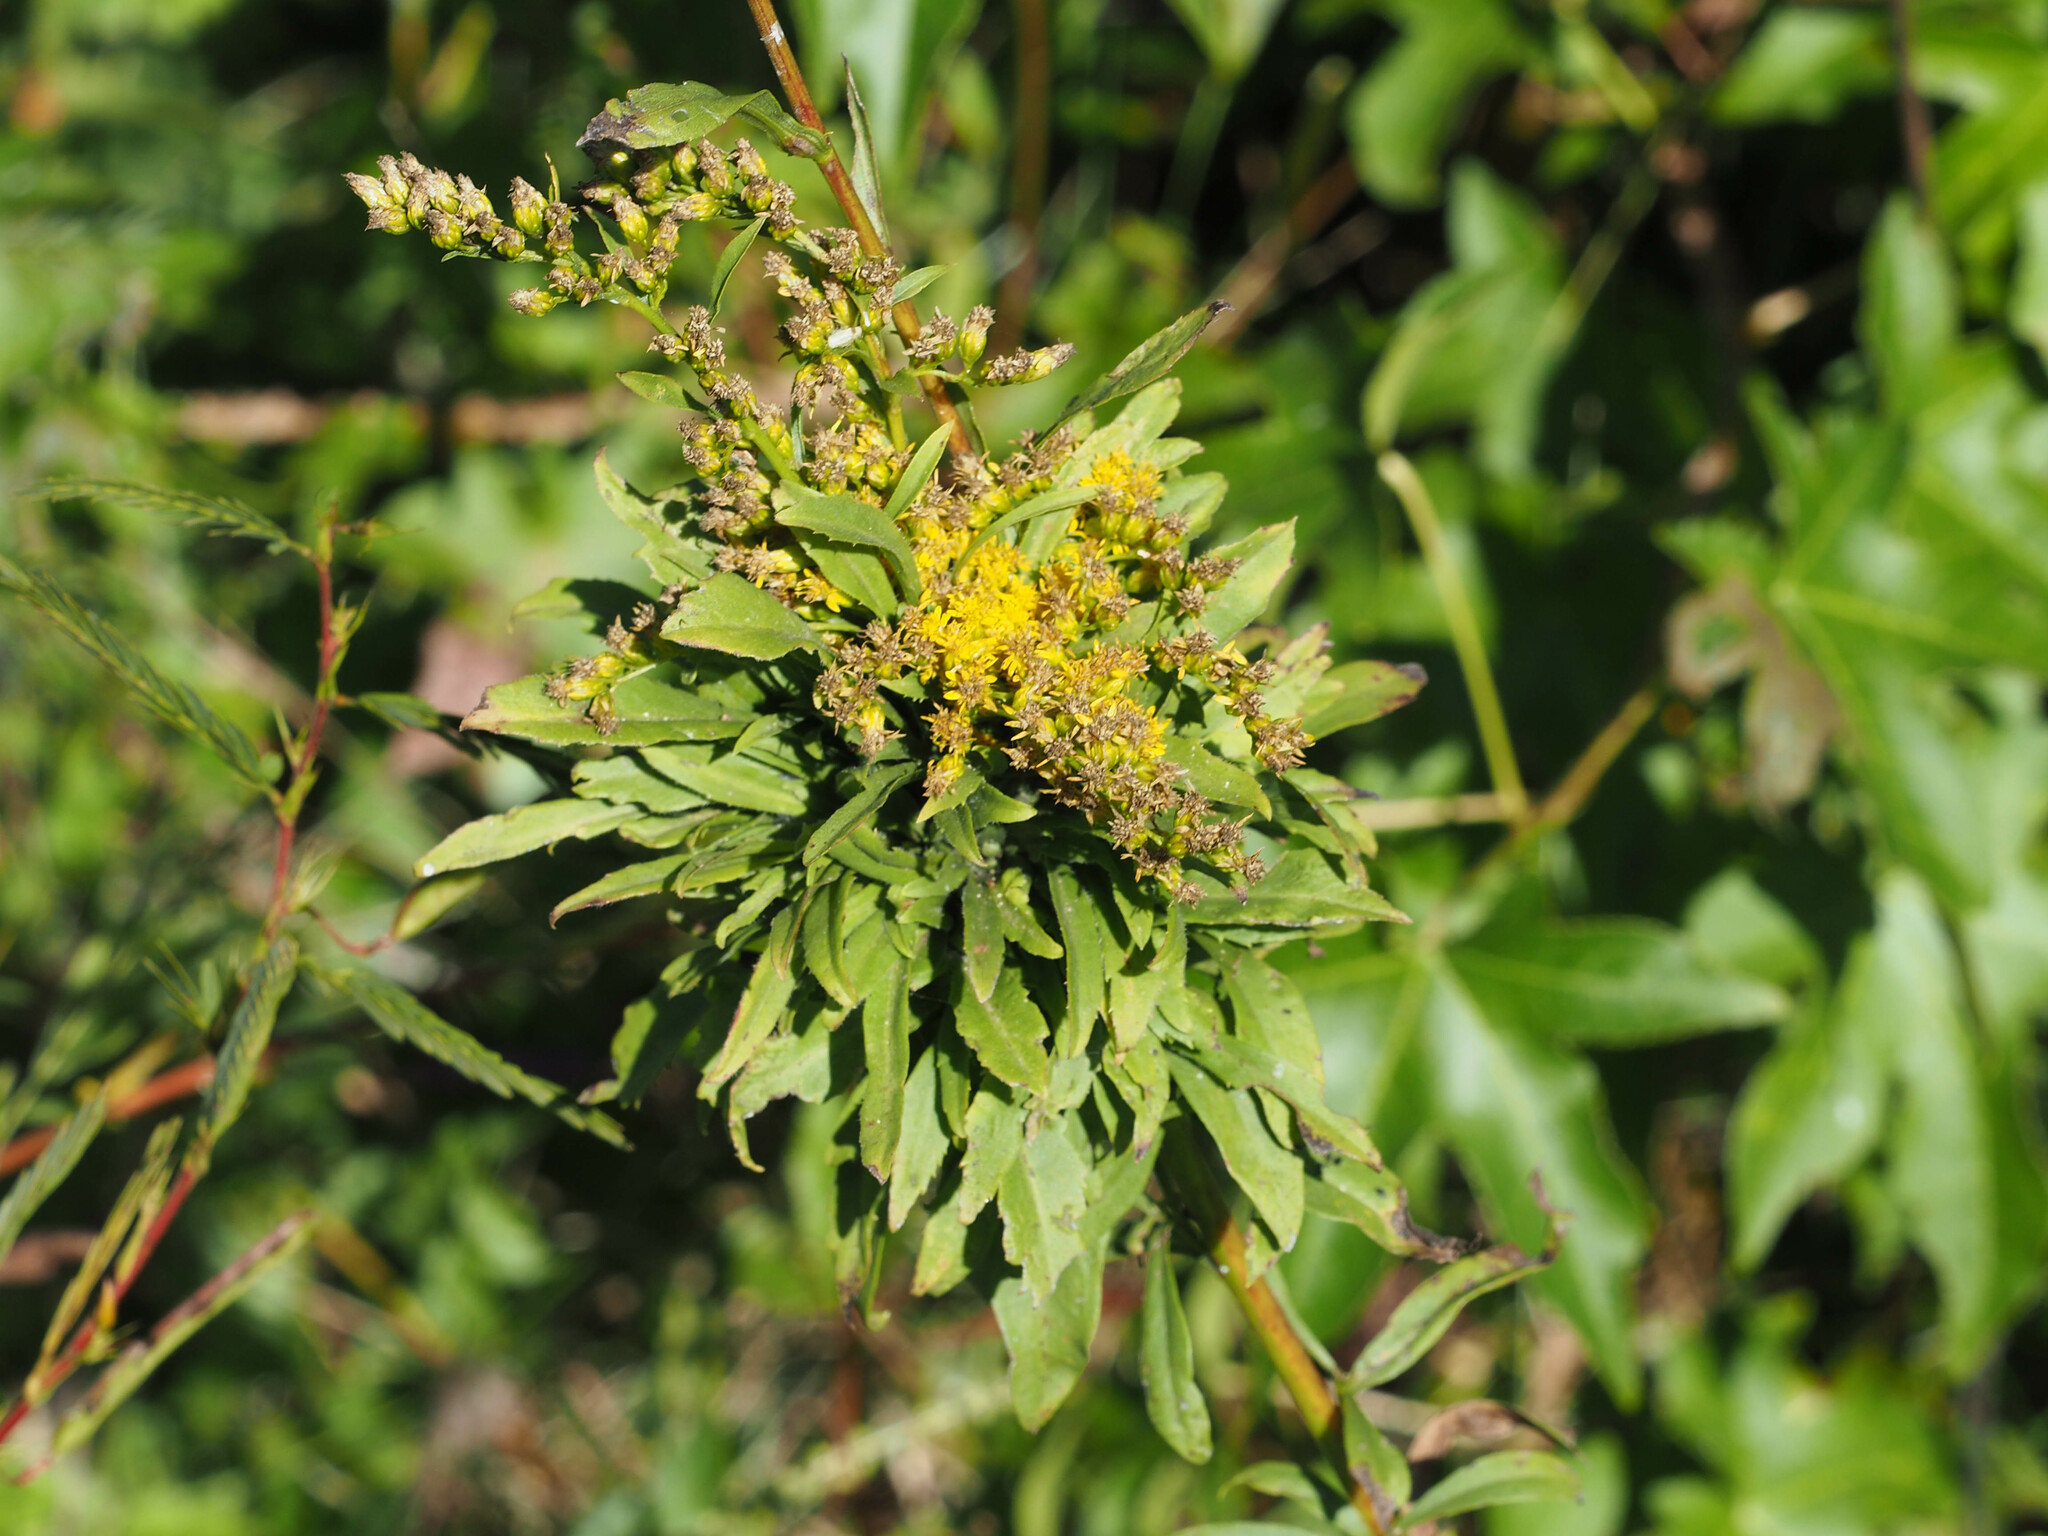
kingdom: Animalia
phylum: Arthropoda
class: Insecta
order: Diptera
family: Cecidomyiidae
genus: Asphondylia
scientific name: Asphondylia monacha
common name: Nun midge
